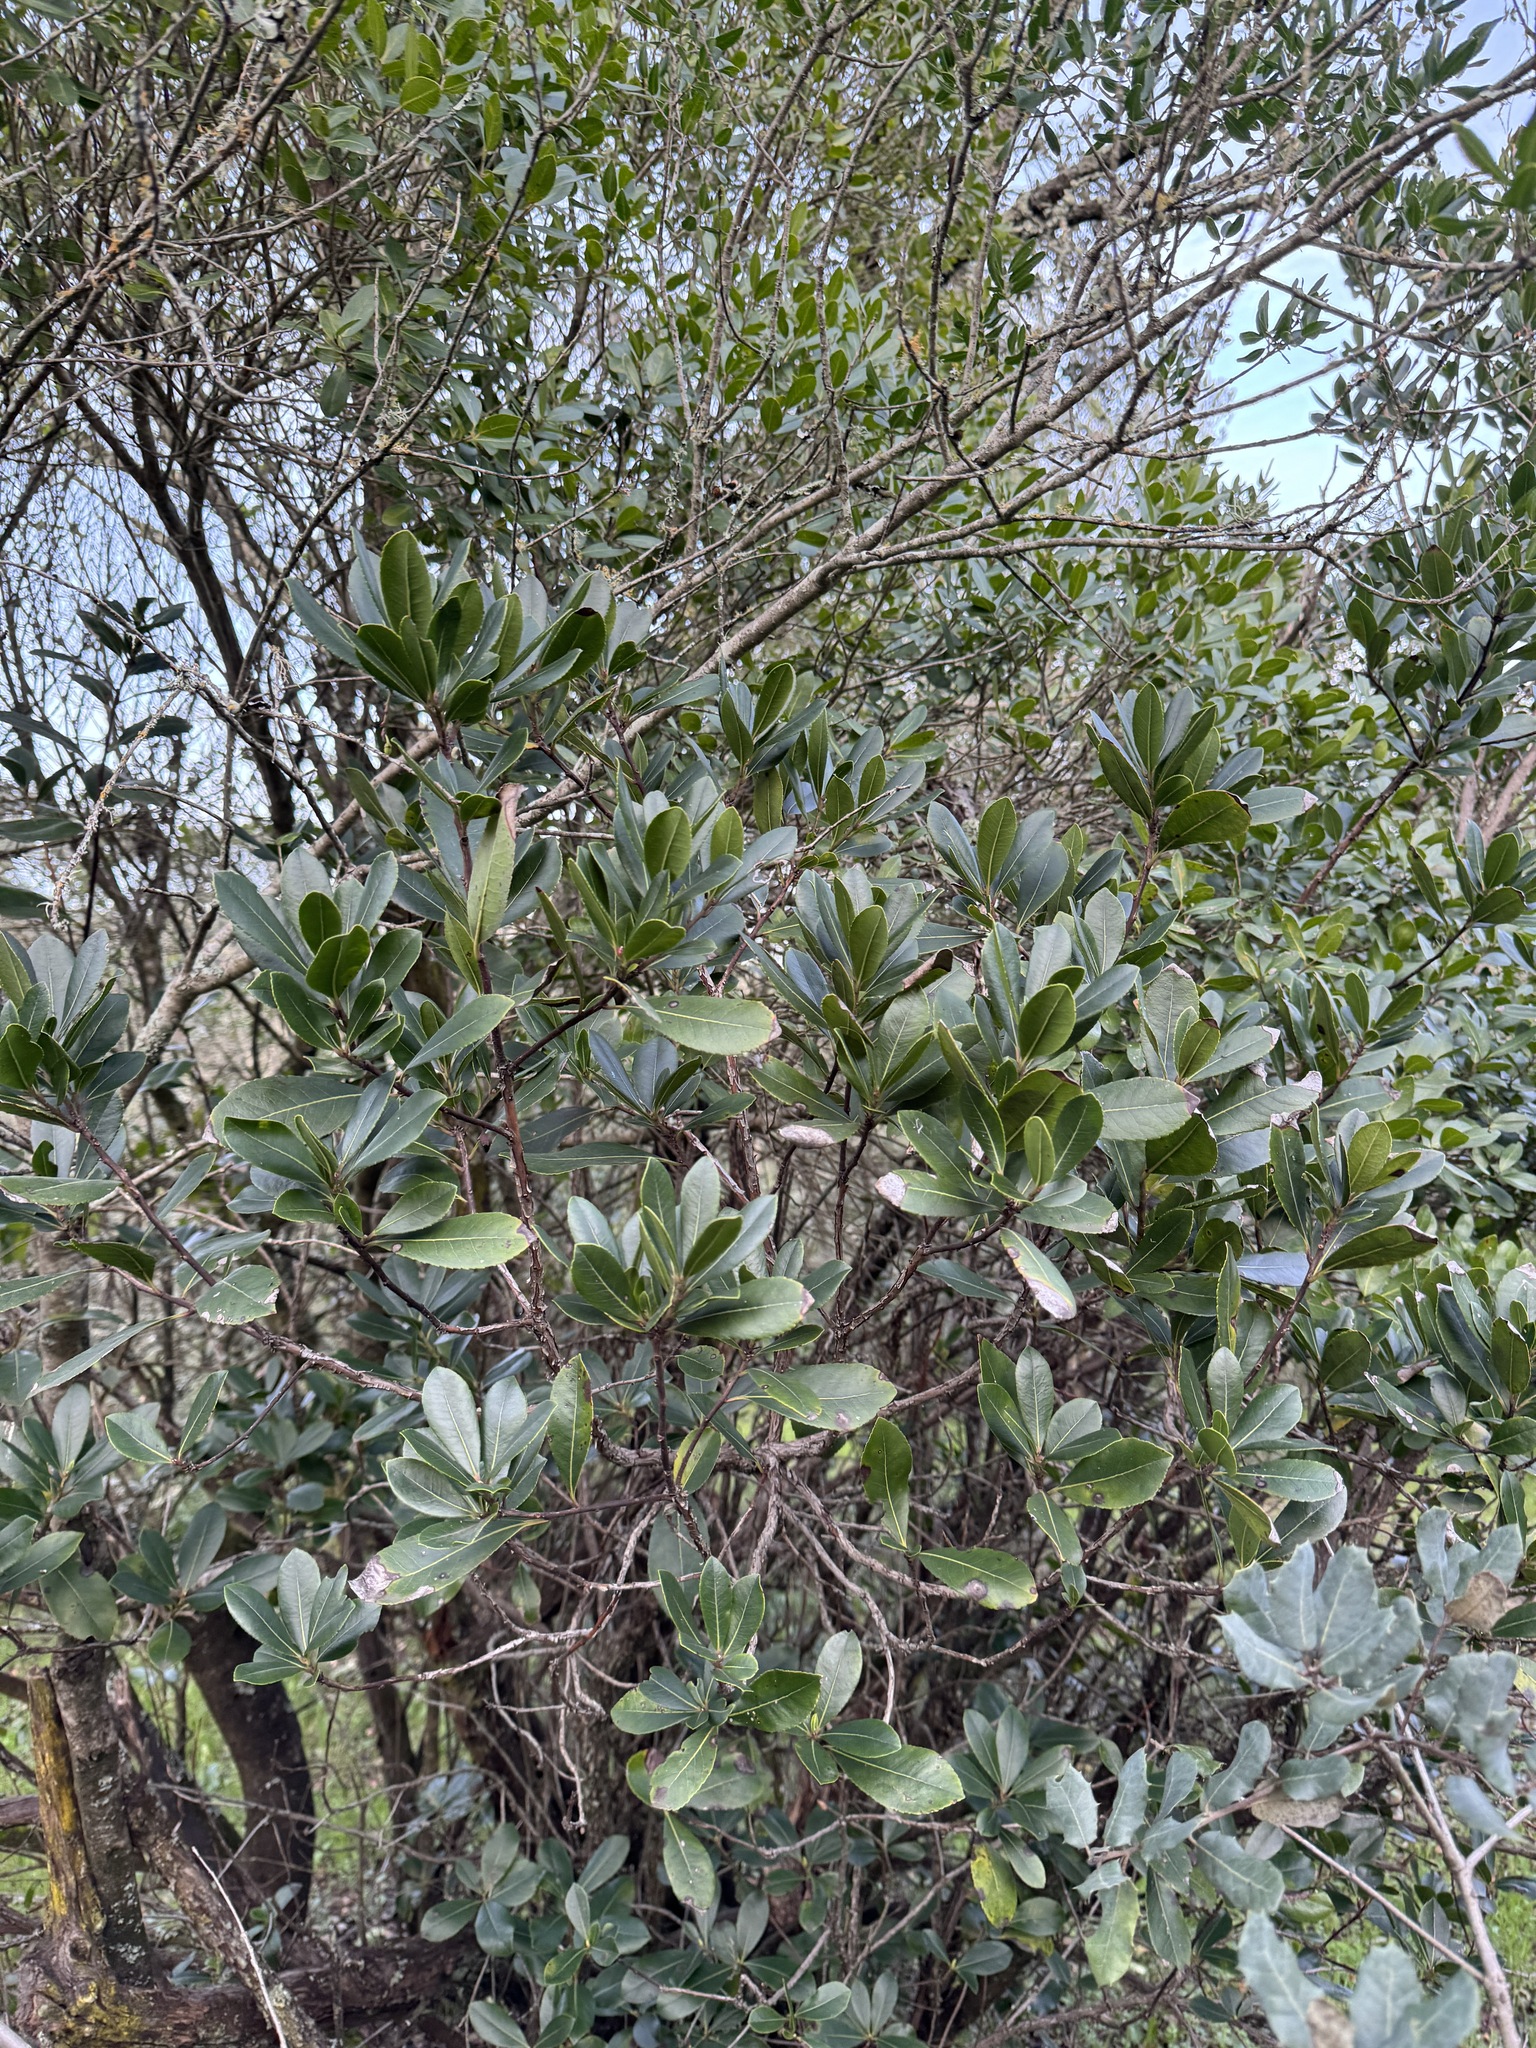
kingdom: Plantae
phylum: Tracheophyta
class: Magnoliopsida
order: Ericales
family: Ericaceae
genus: Arbutus
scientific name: Arbutus unedo
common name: Strawberry-tree
